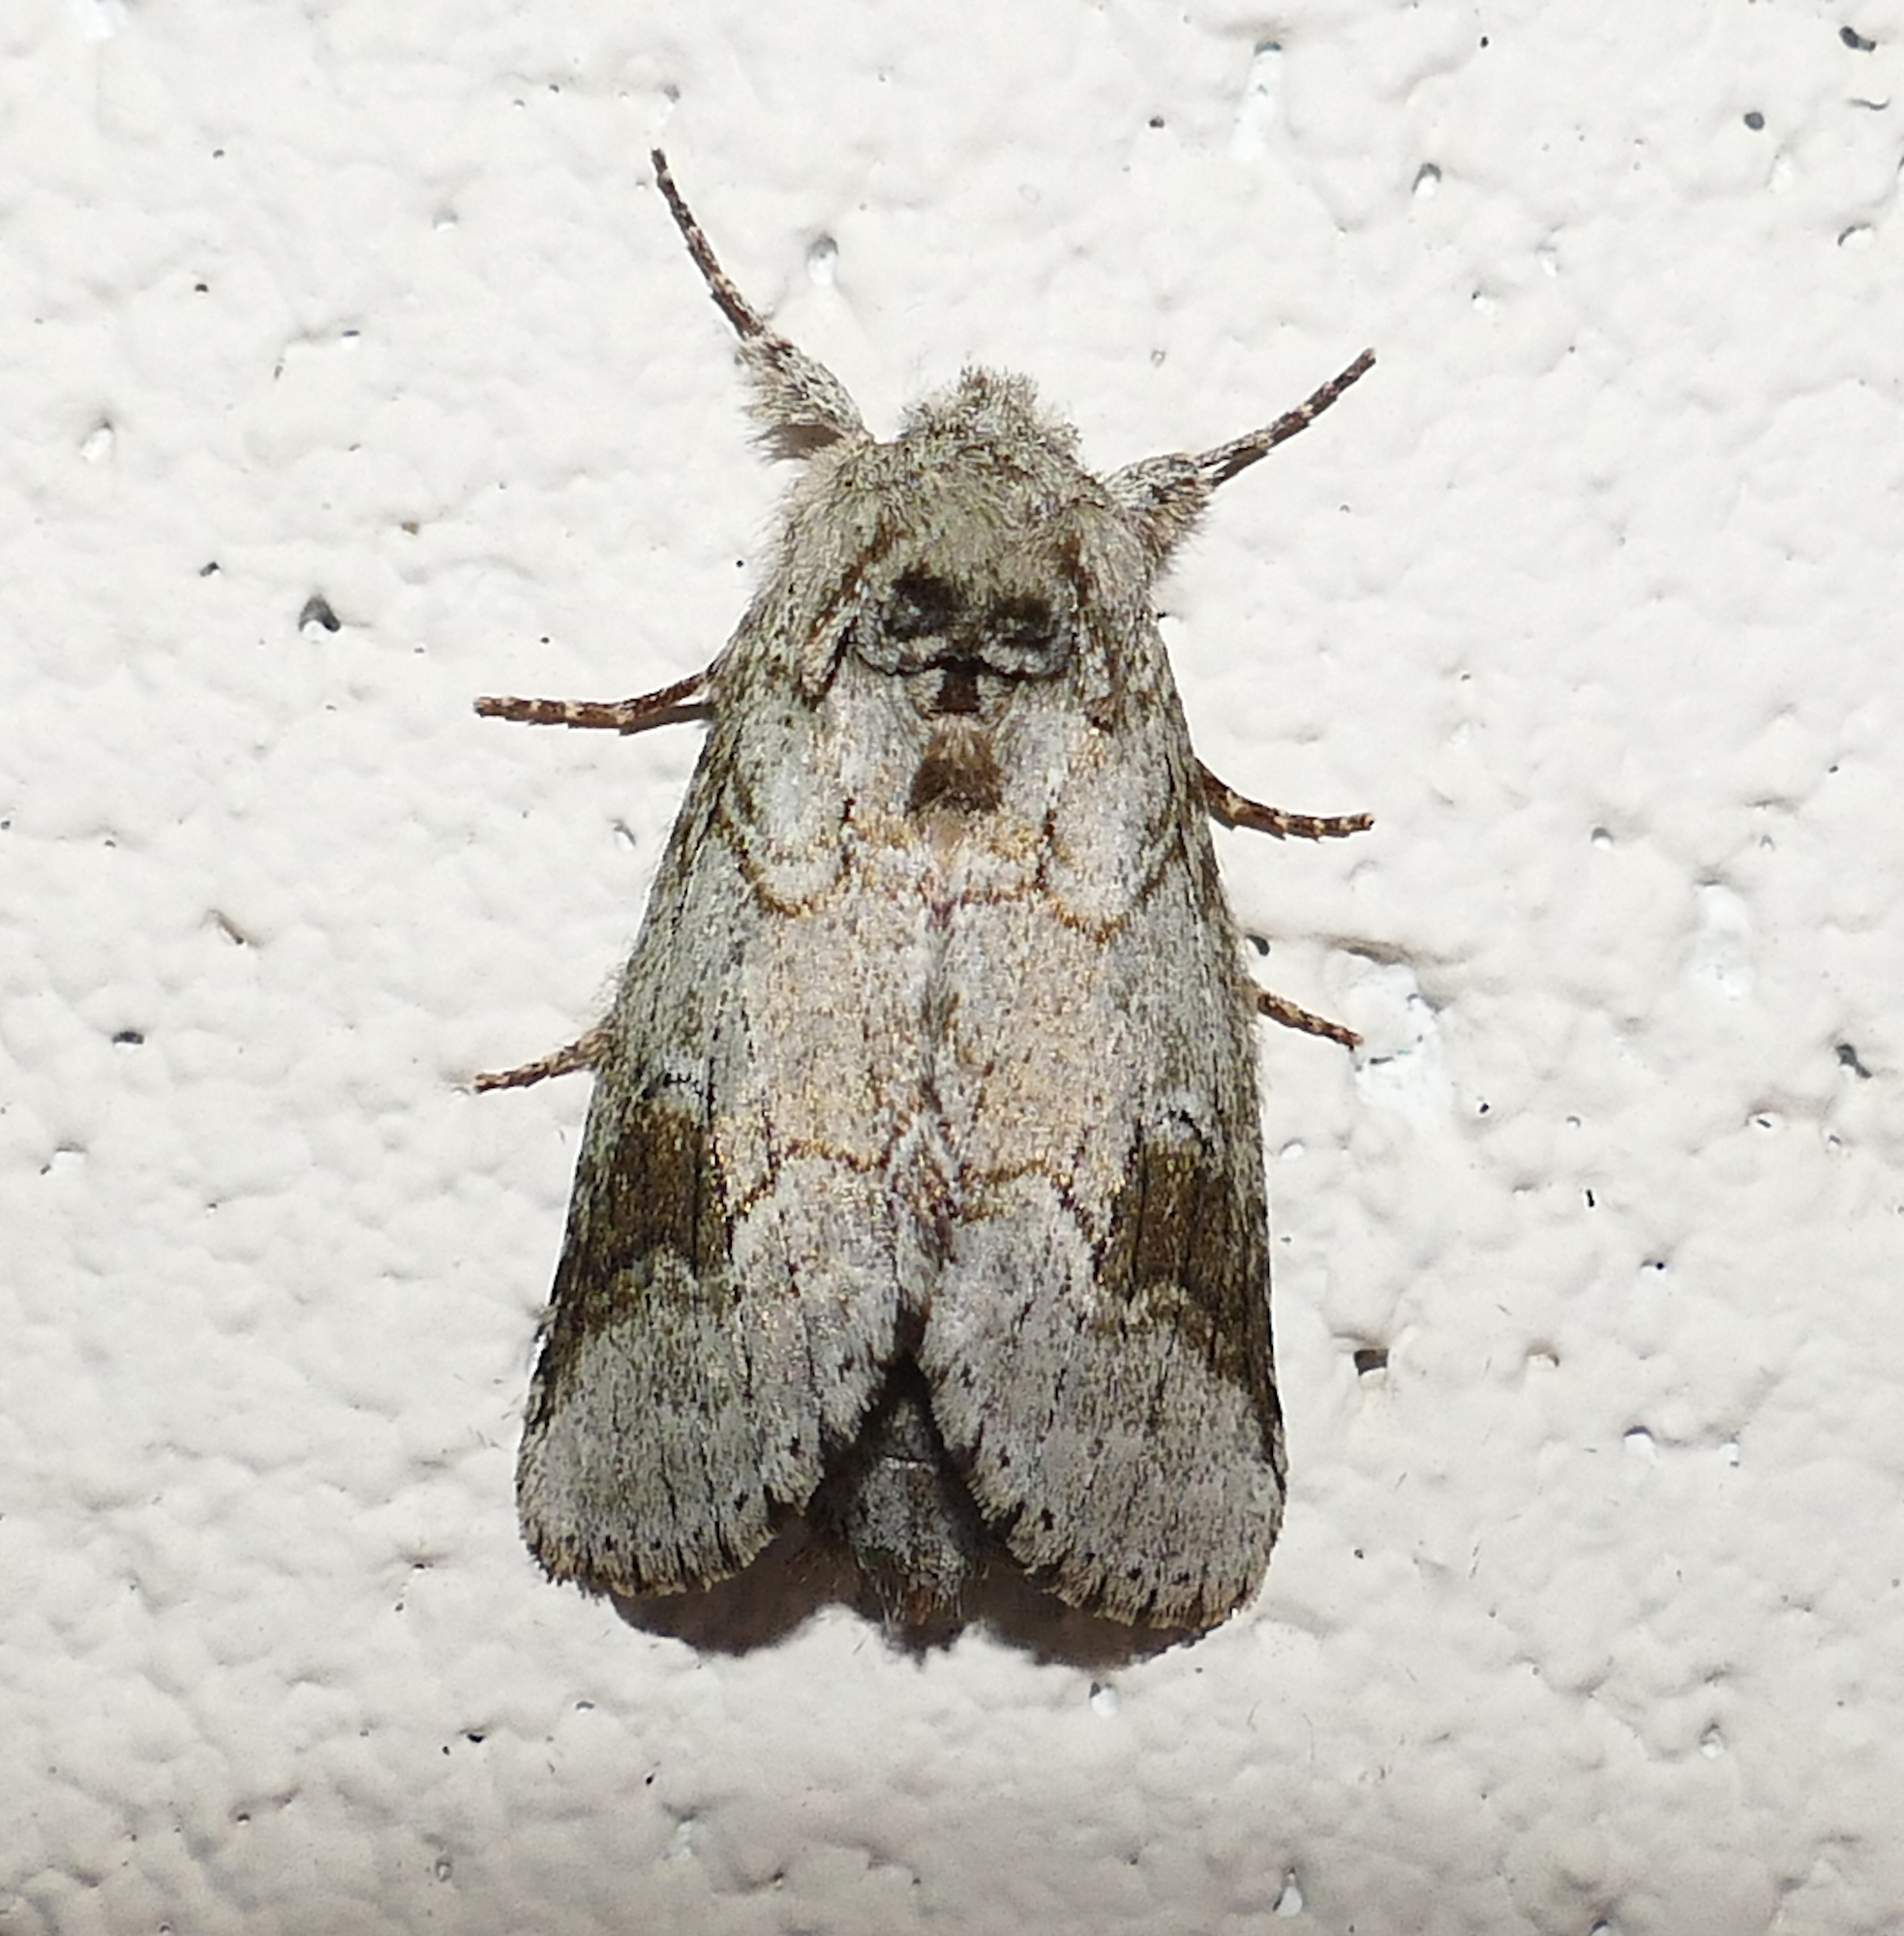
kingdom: Animalia
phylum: Arthropoda
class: Insecta
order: Lepidoptera
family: Notodontidae
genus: Lochmaeus
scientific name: Lochmaeus bilineata
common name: Double-lined prominent
